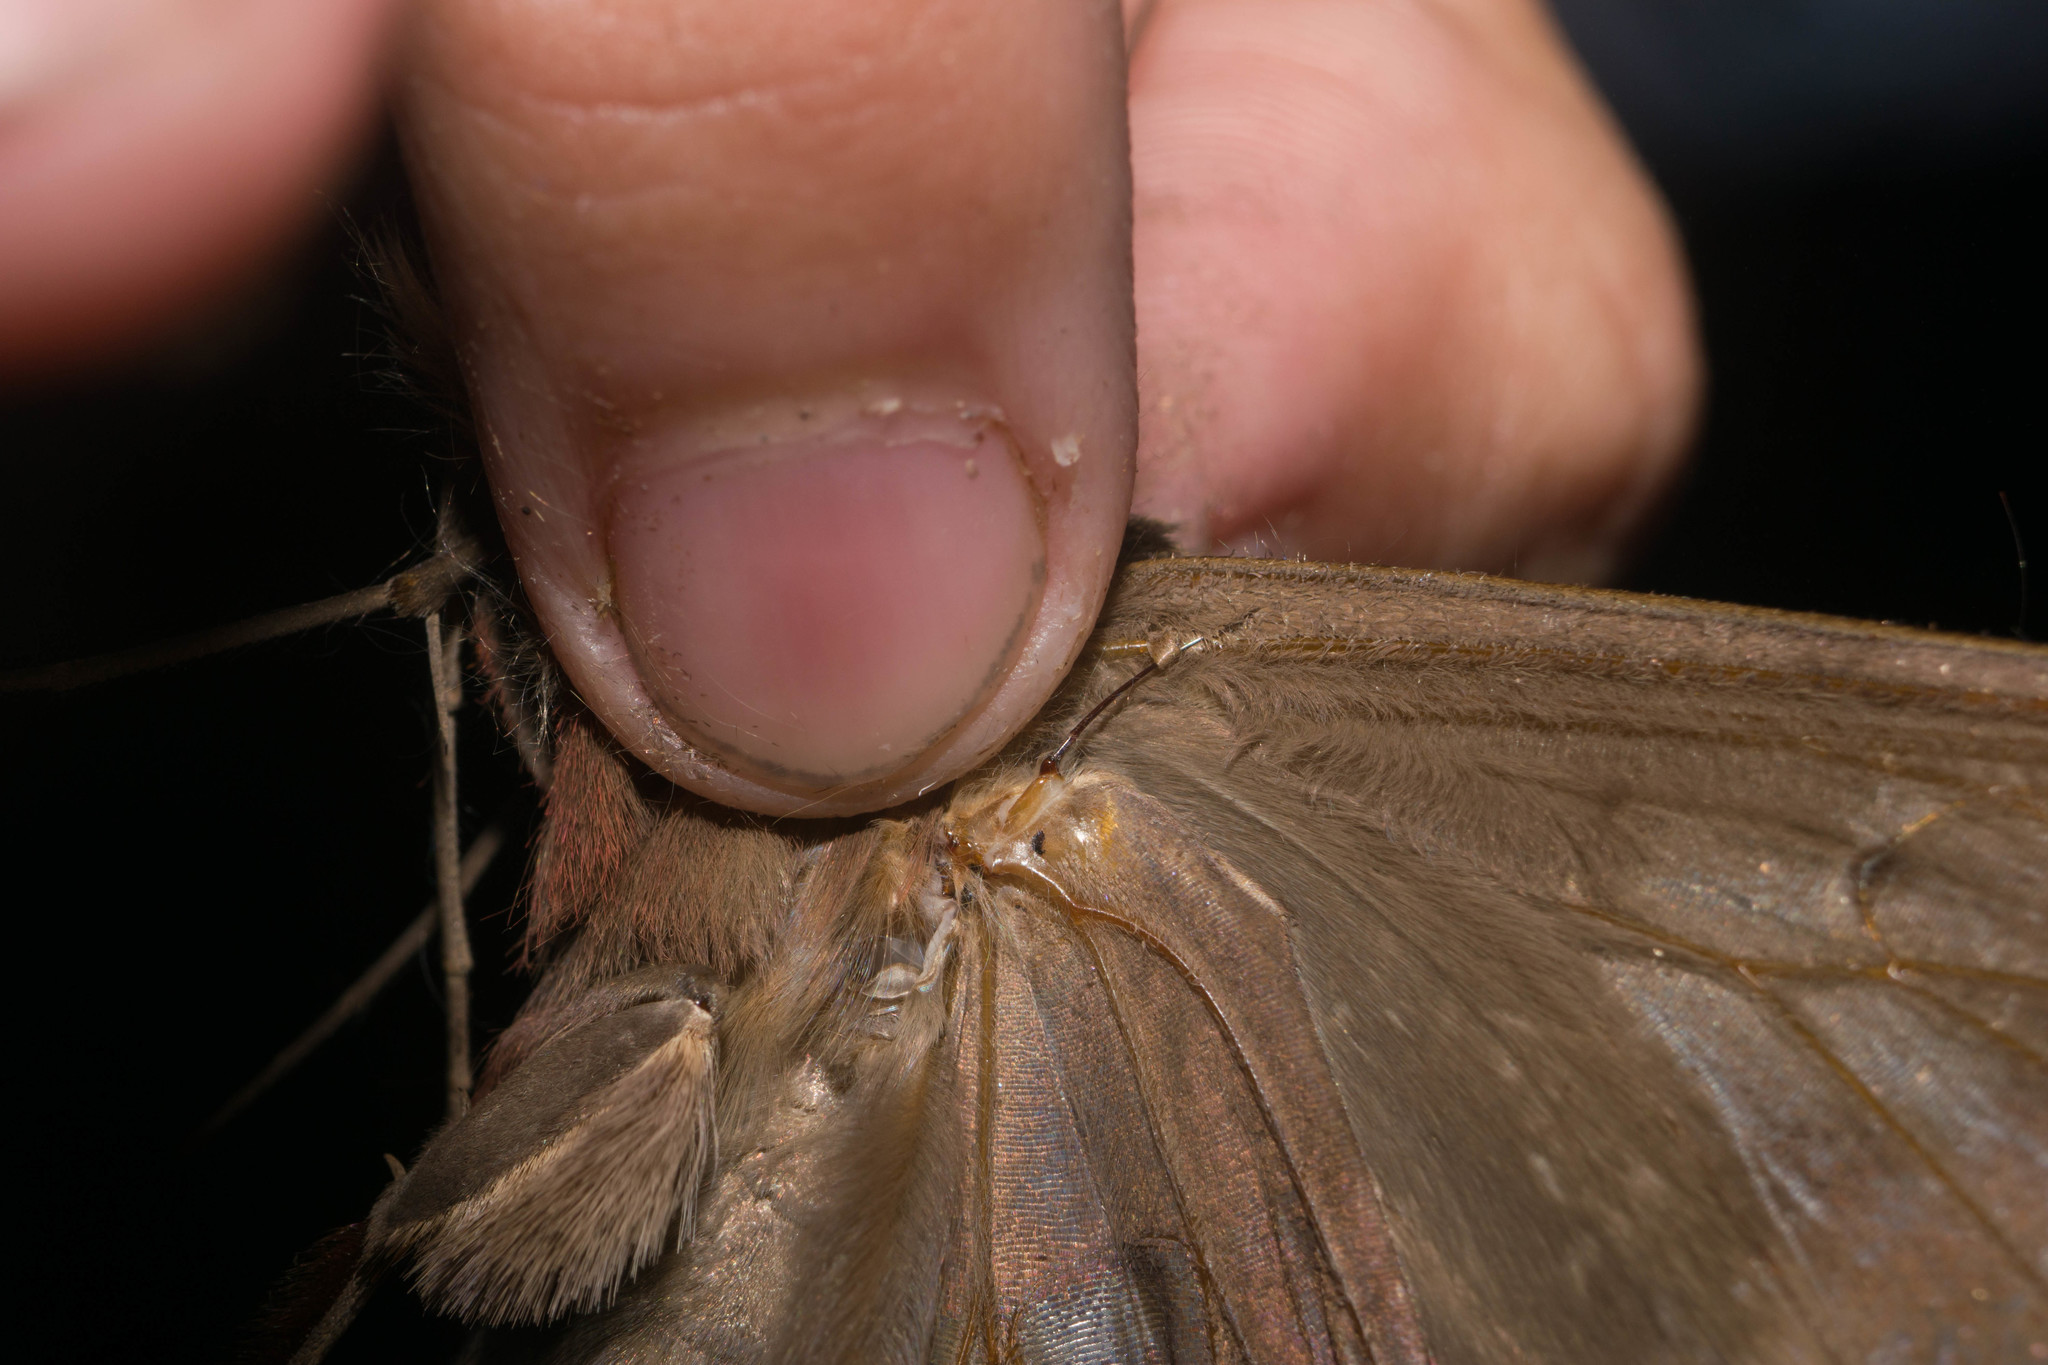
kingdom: Animalia
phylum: Arthropoda
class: Insecta
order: Lepidoptera
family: Erebidae
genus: Ascalapha
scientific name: Ascalapha odorata
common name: Black witch
